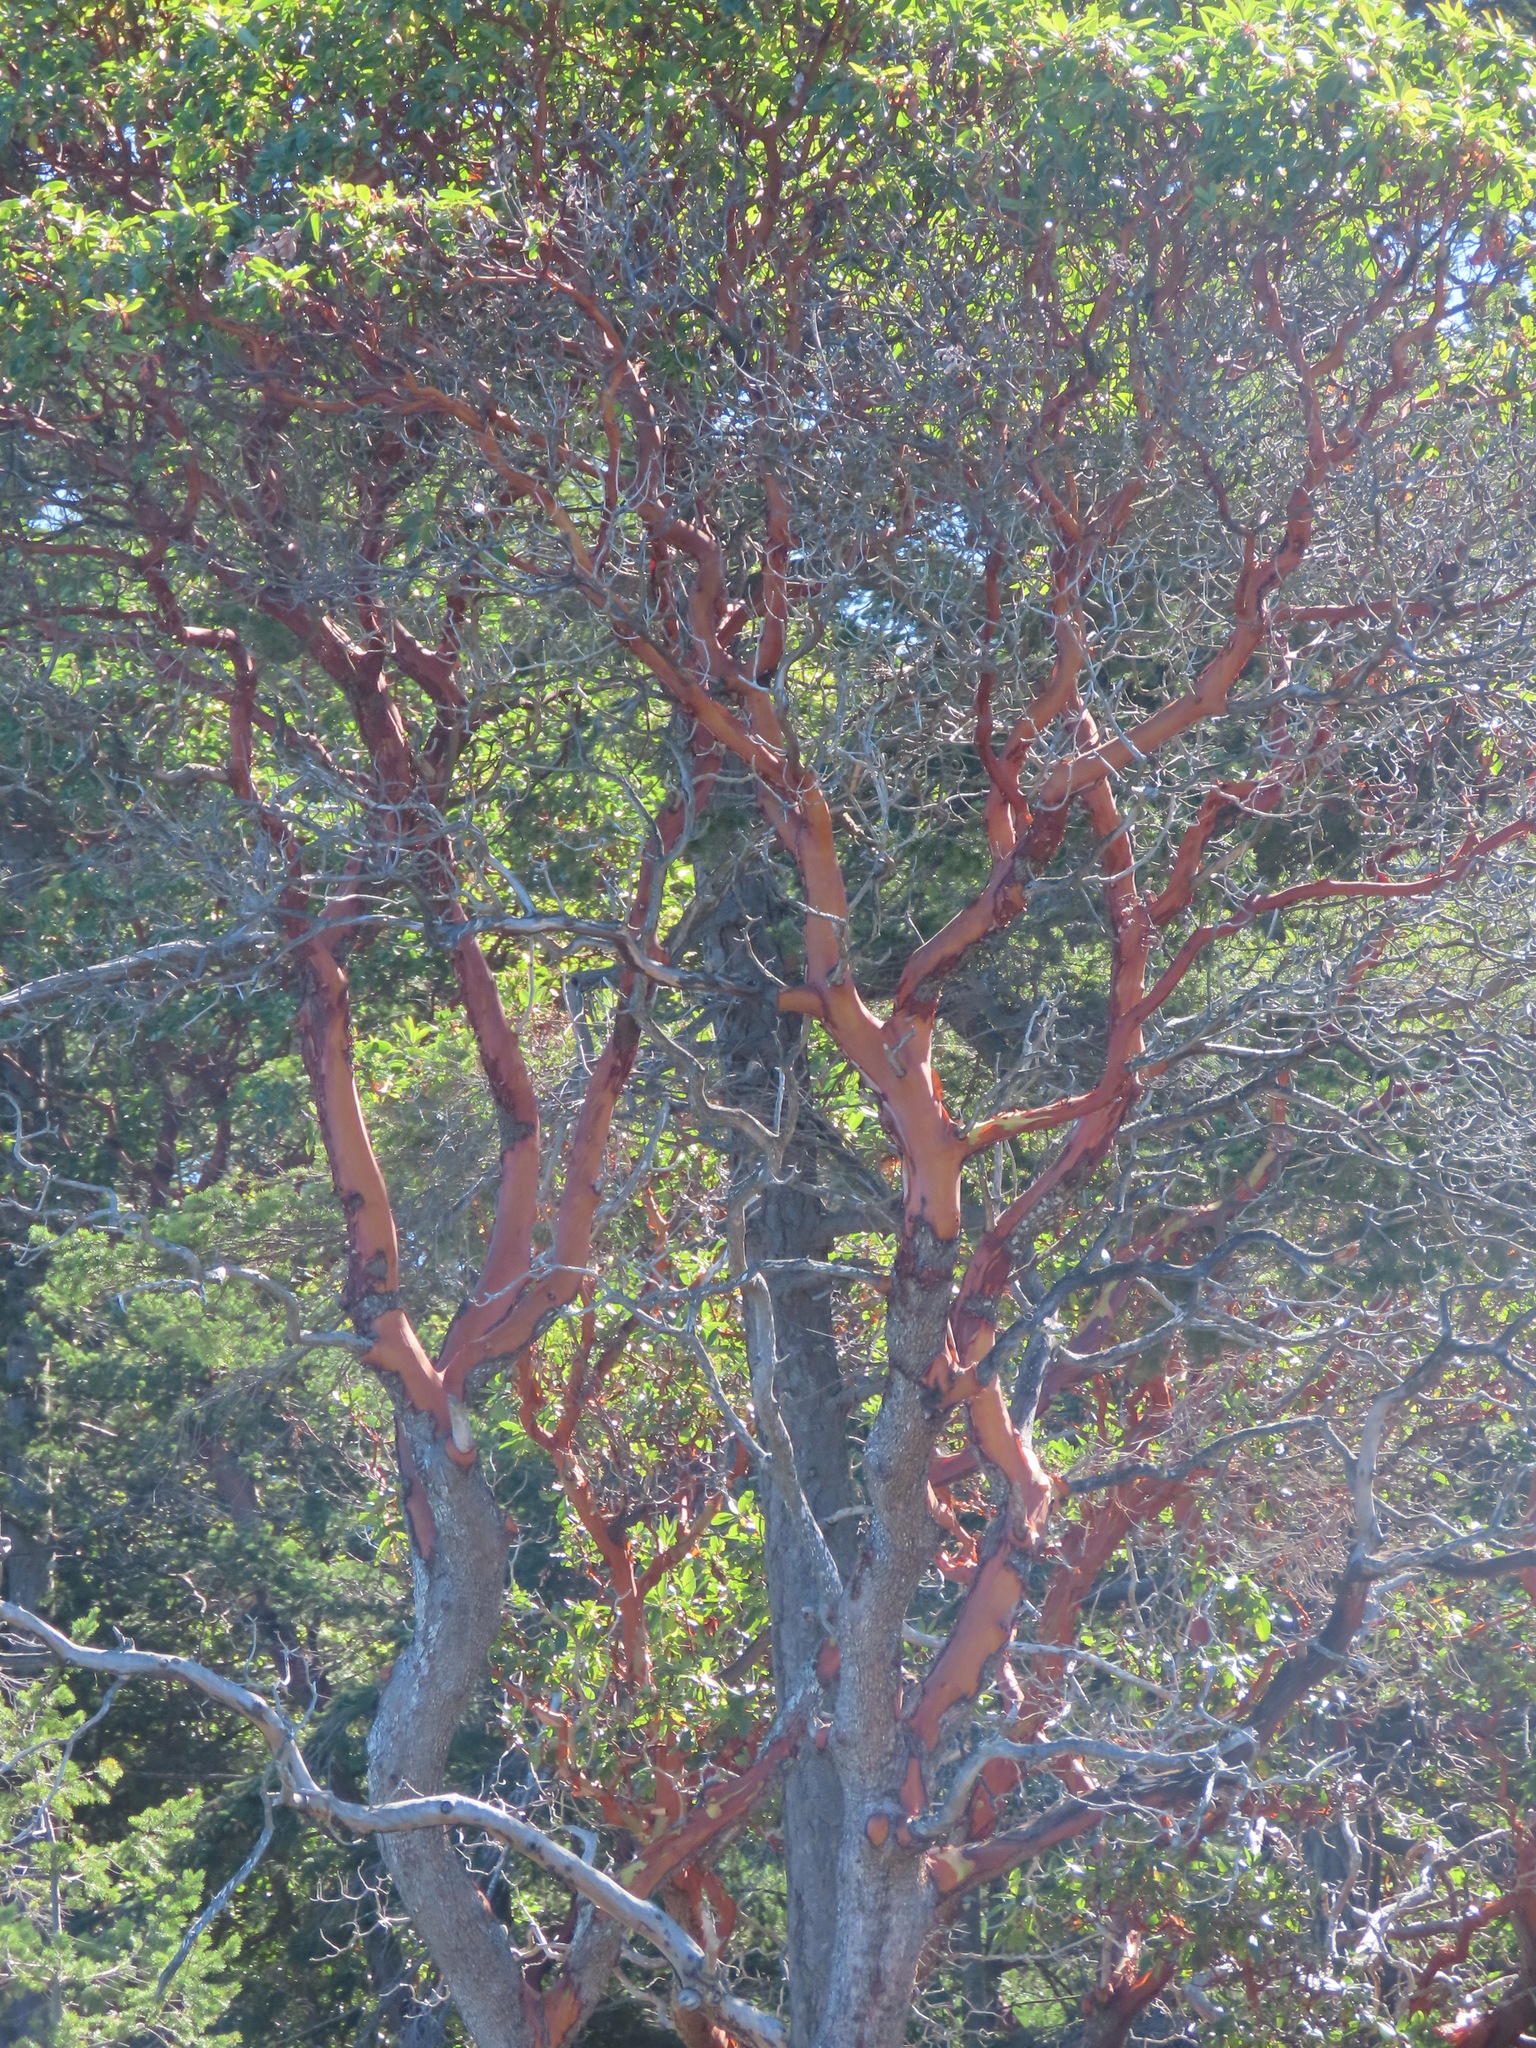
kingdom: Plantae
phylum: Tracheophyta
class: Magnoliopsida
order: Ericales
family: Ericaceae
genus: Arbutus
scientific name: Arbutus menziesii
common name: Pacific madrone
